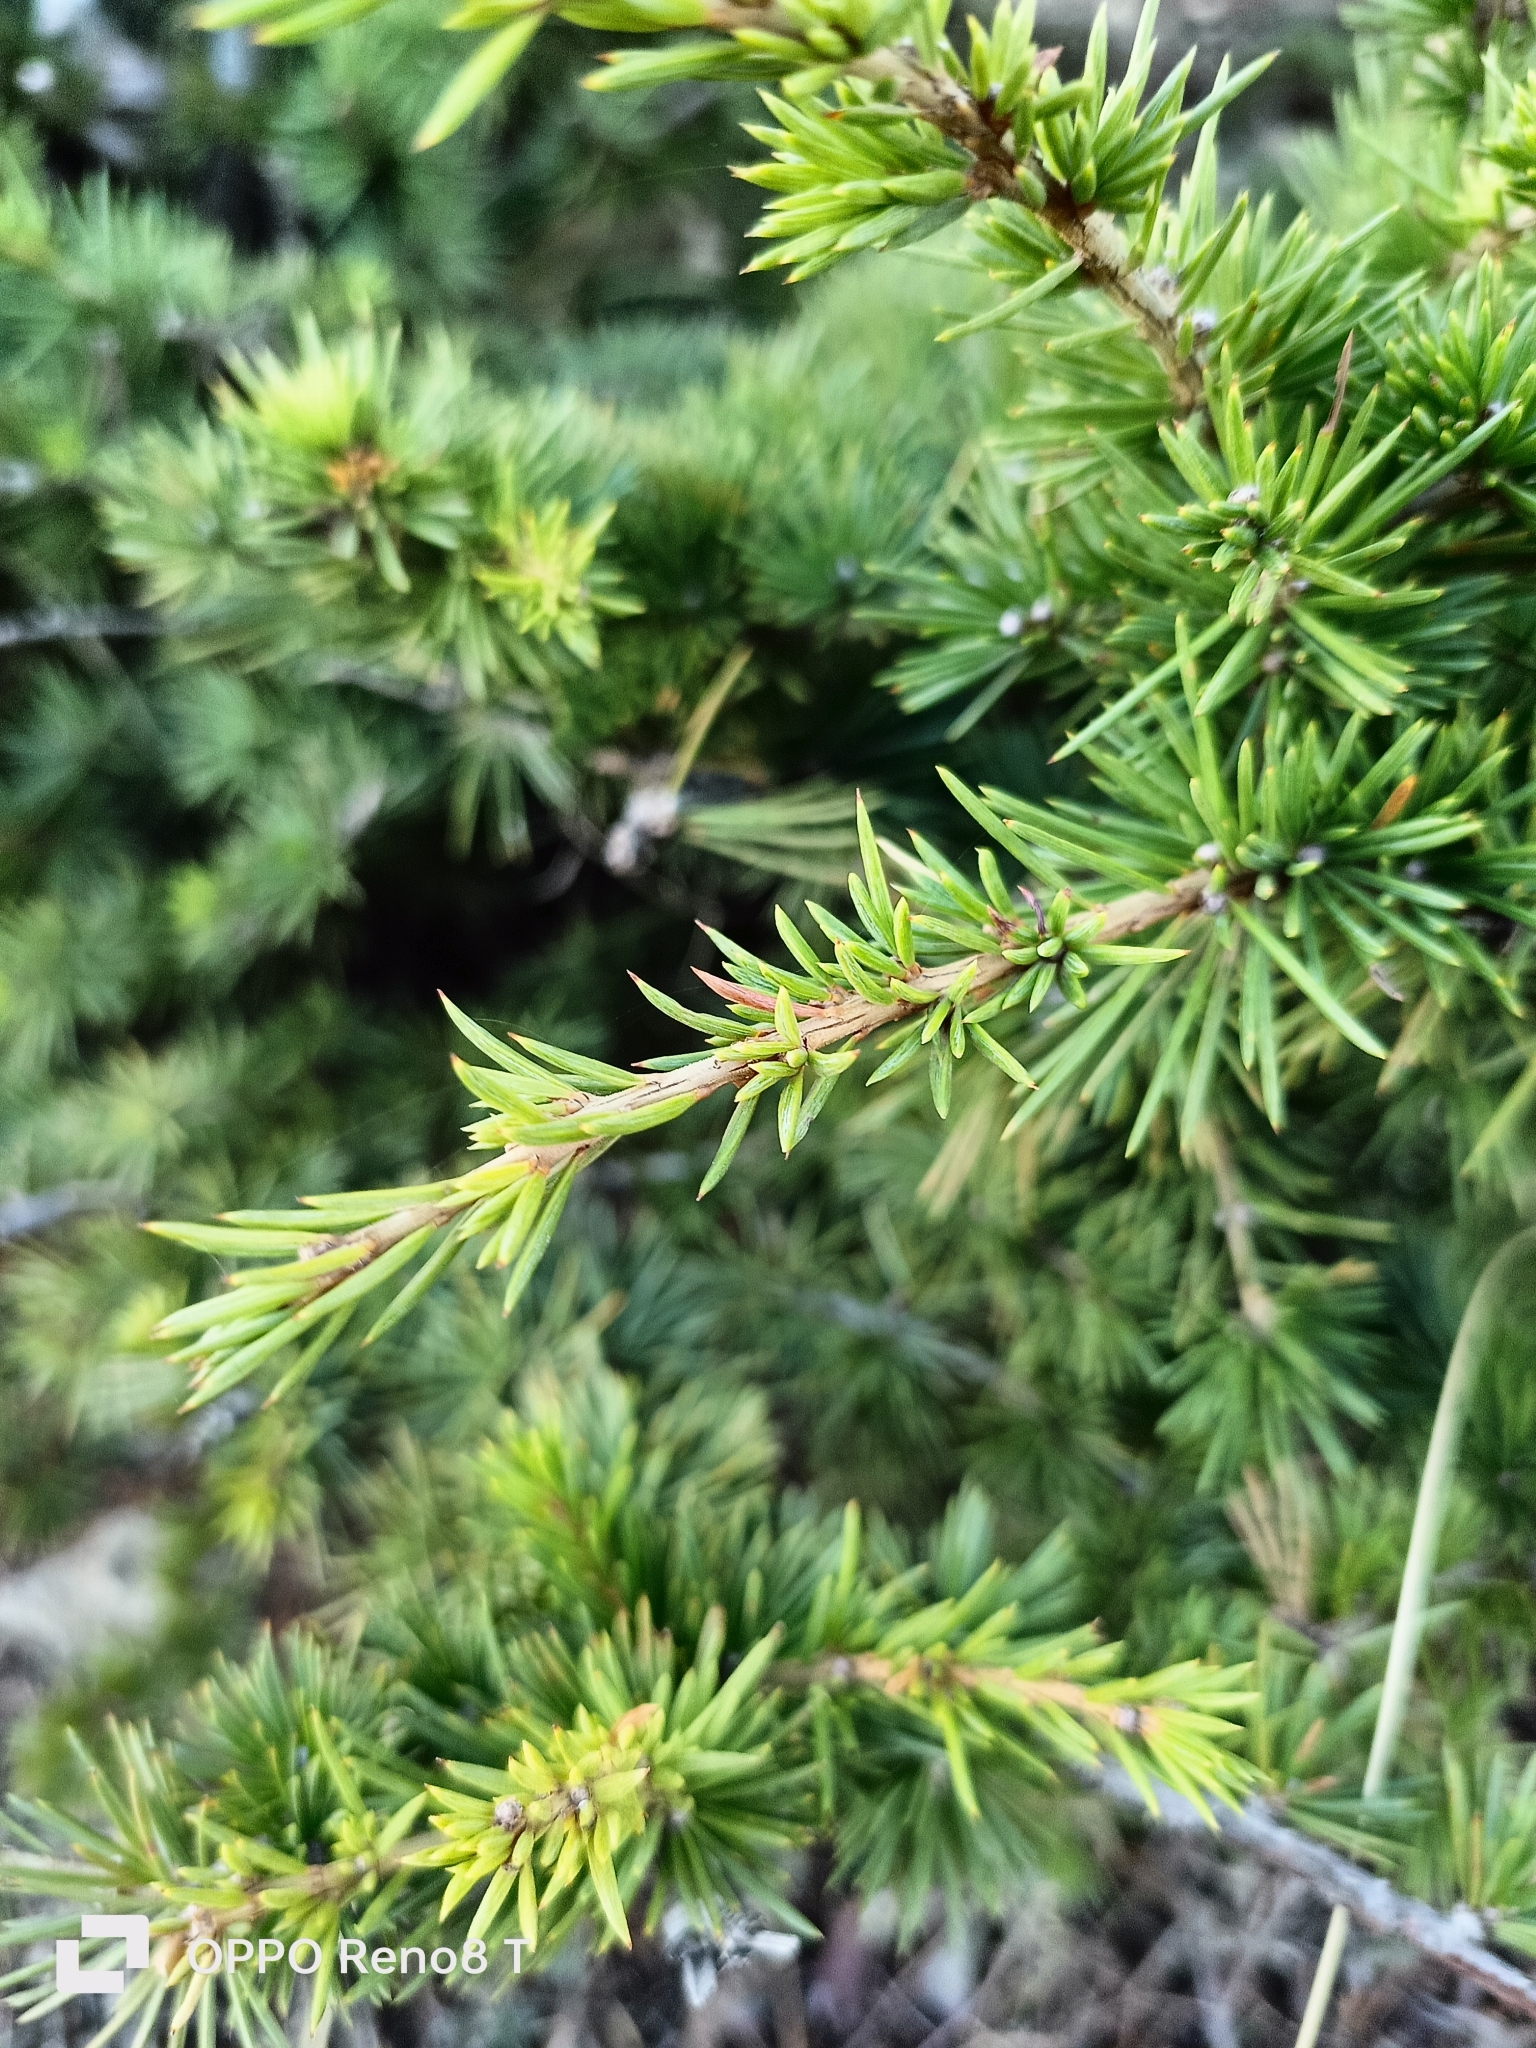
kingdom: Plantae
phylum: Tracheophyta
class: Pinopsida
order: Pinales
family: Pinaceae
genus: Cedrus
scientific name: Cedrus atlantica
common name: Atlas cedar
